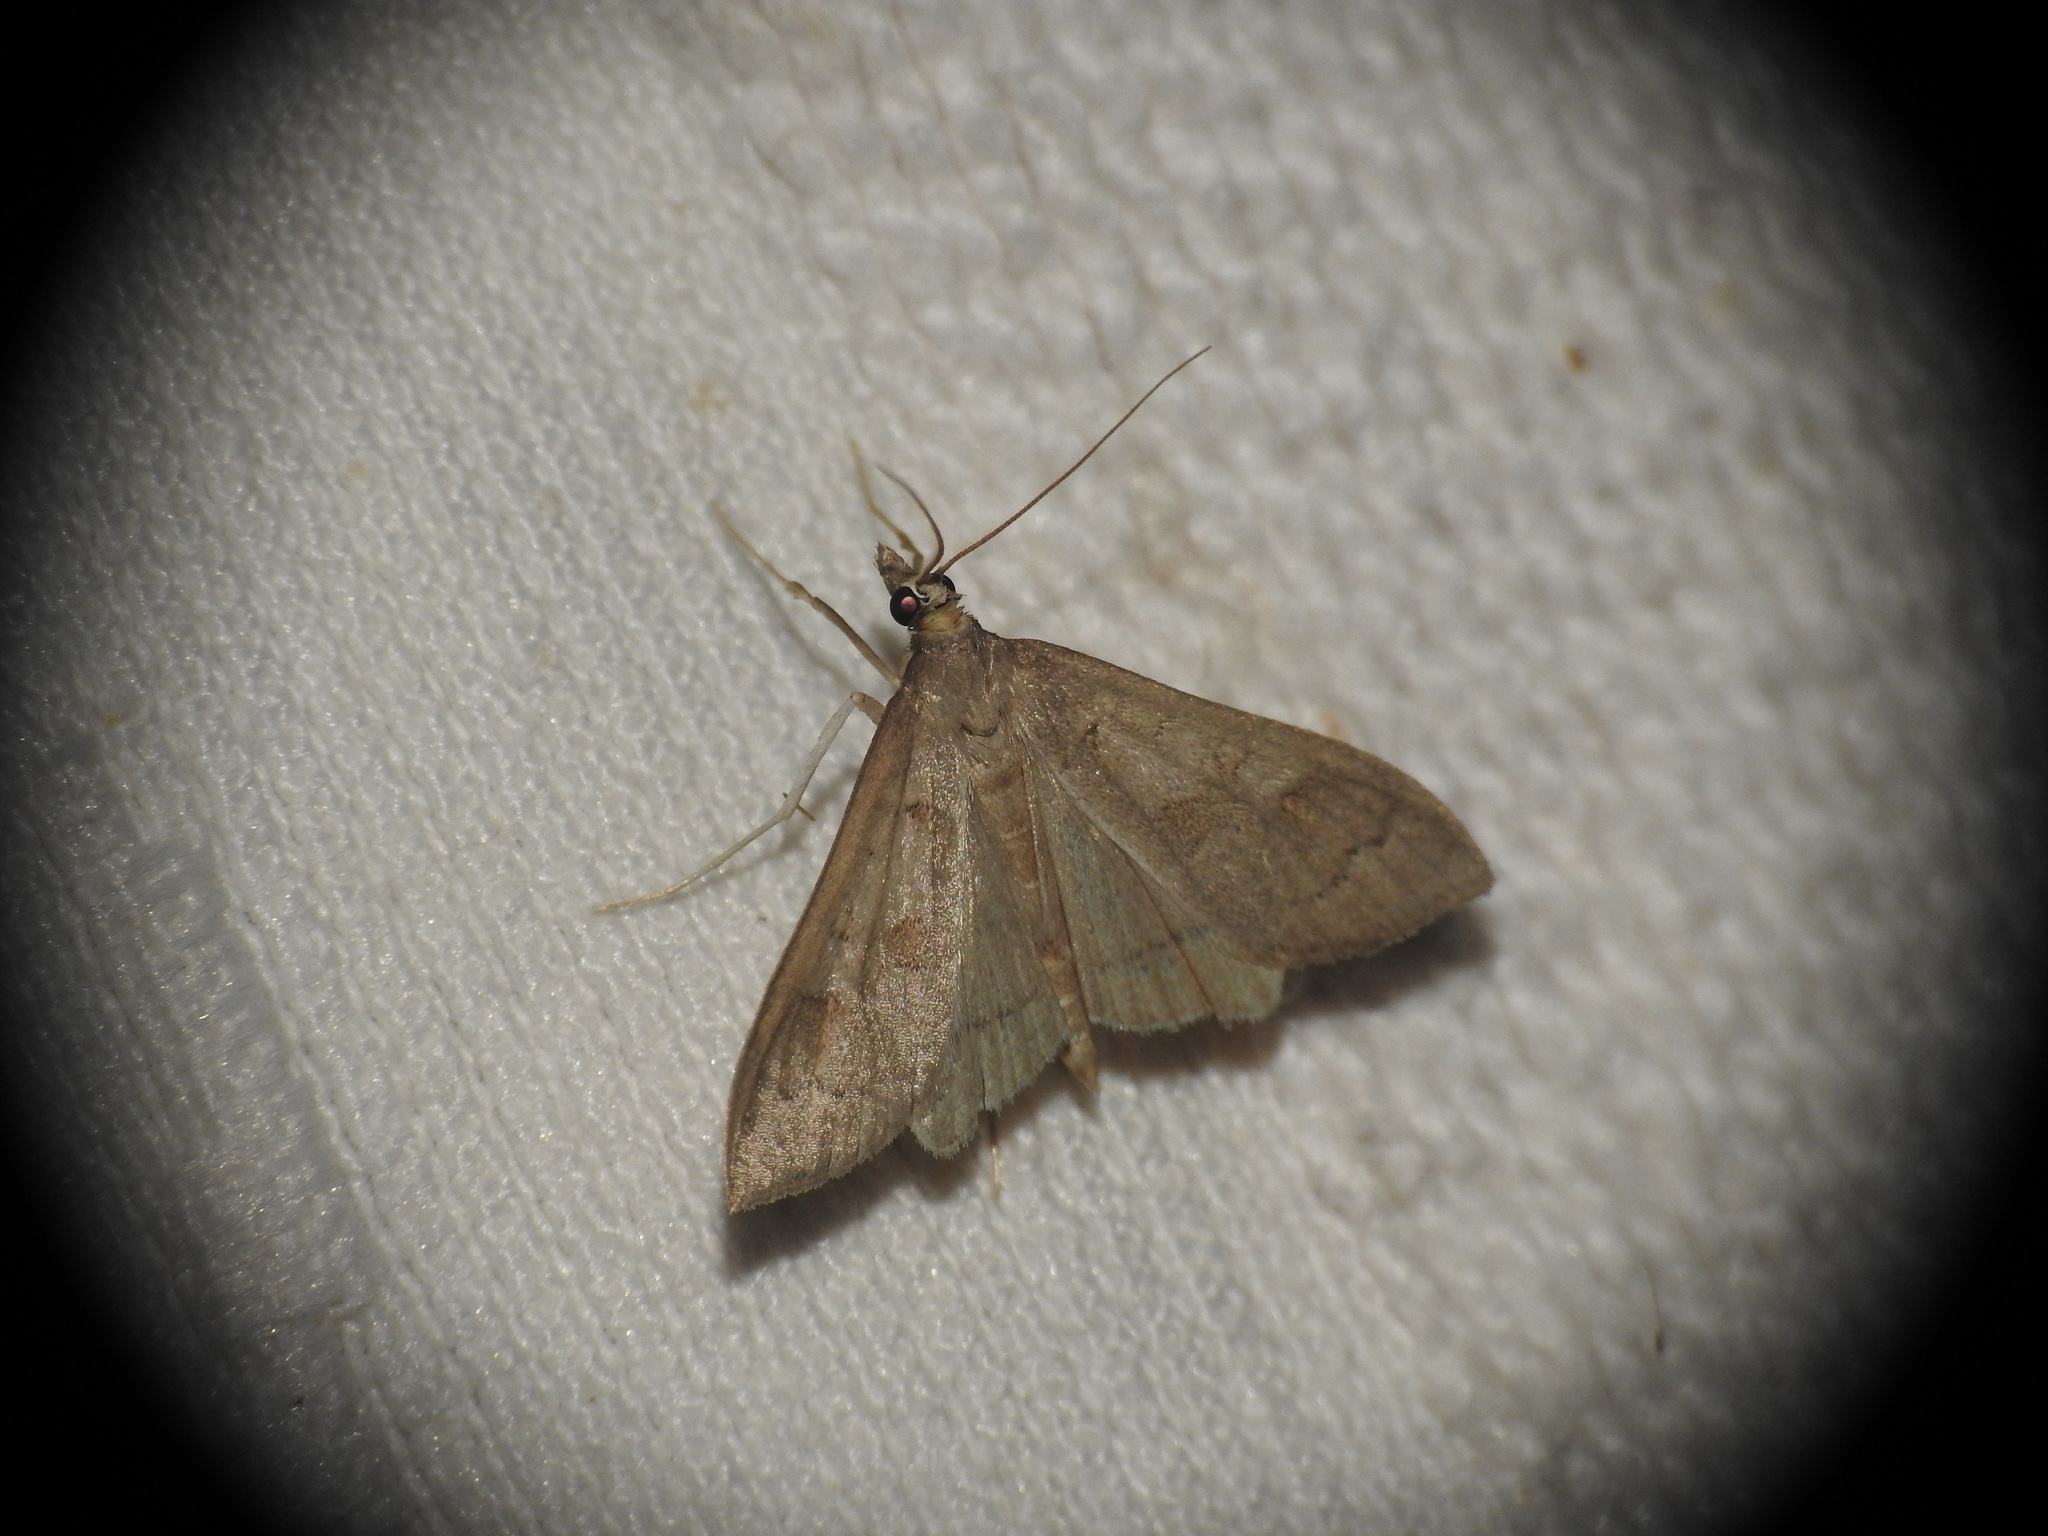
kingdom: Animalia
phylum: Arthropoda
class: Insecta
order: Lepidoptera
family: Crambidae
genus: Mecyna
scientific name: Mecyna asinalis
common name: Coastal pearl
